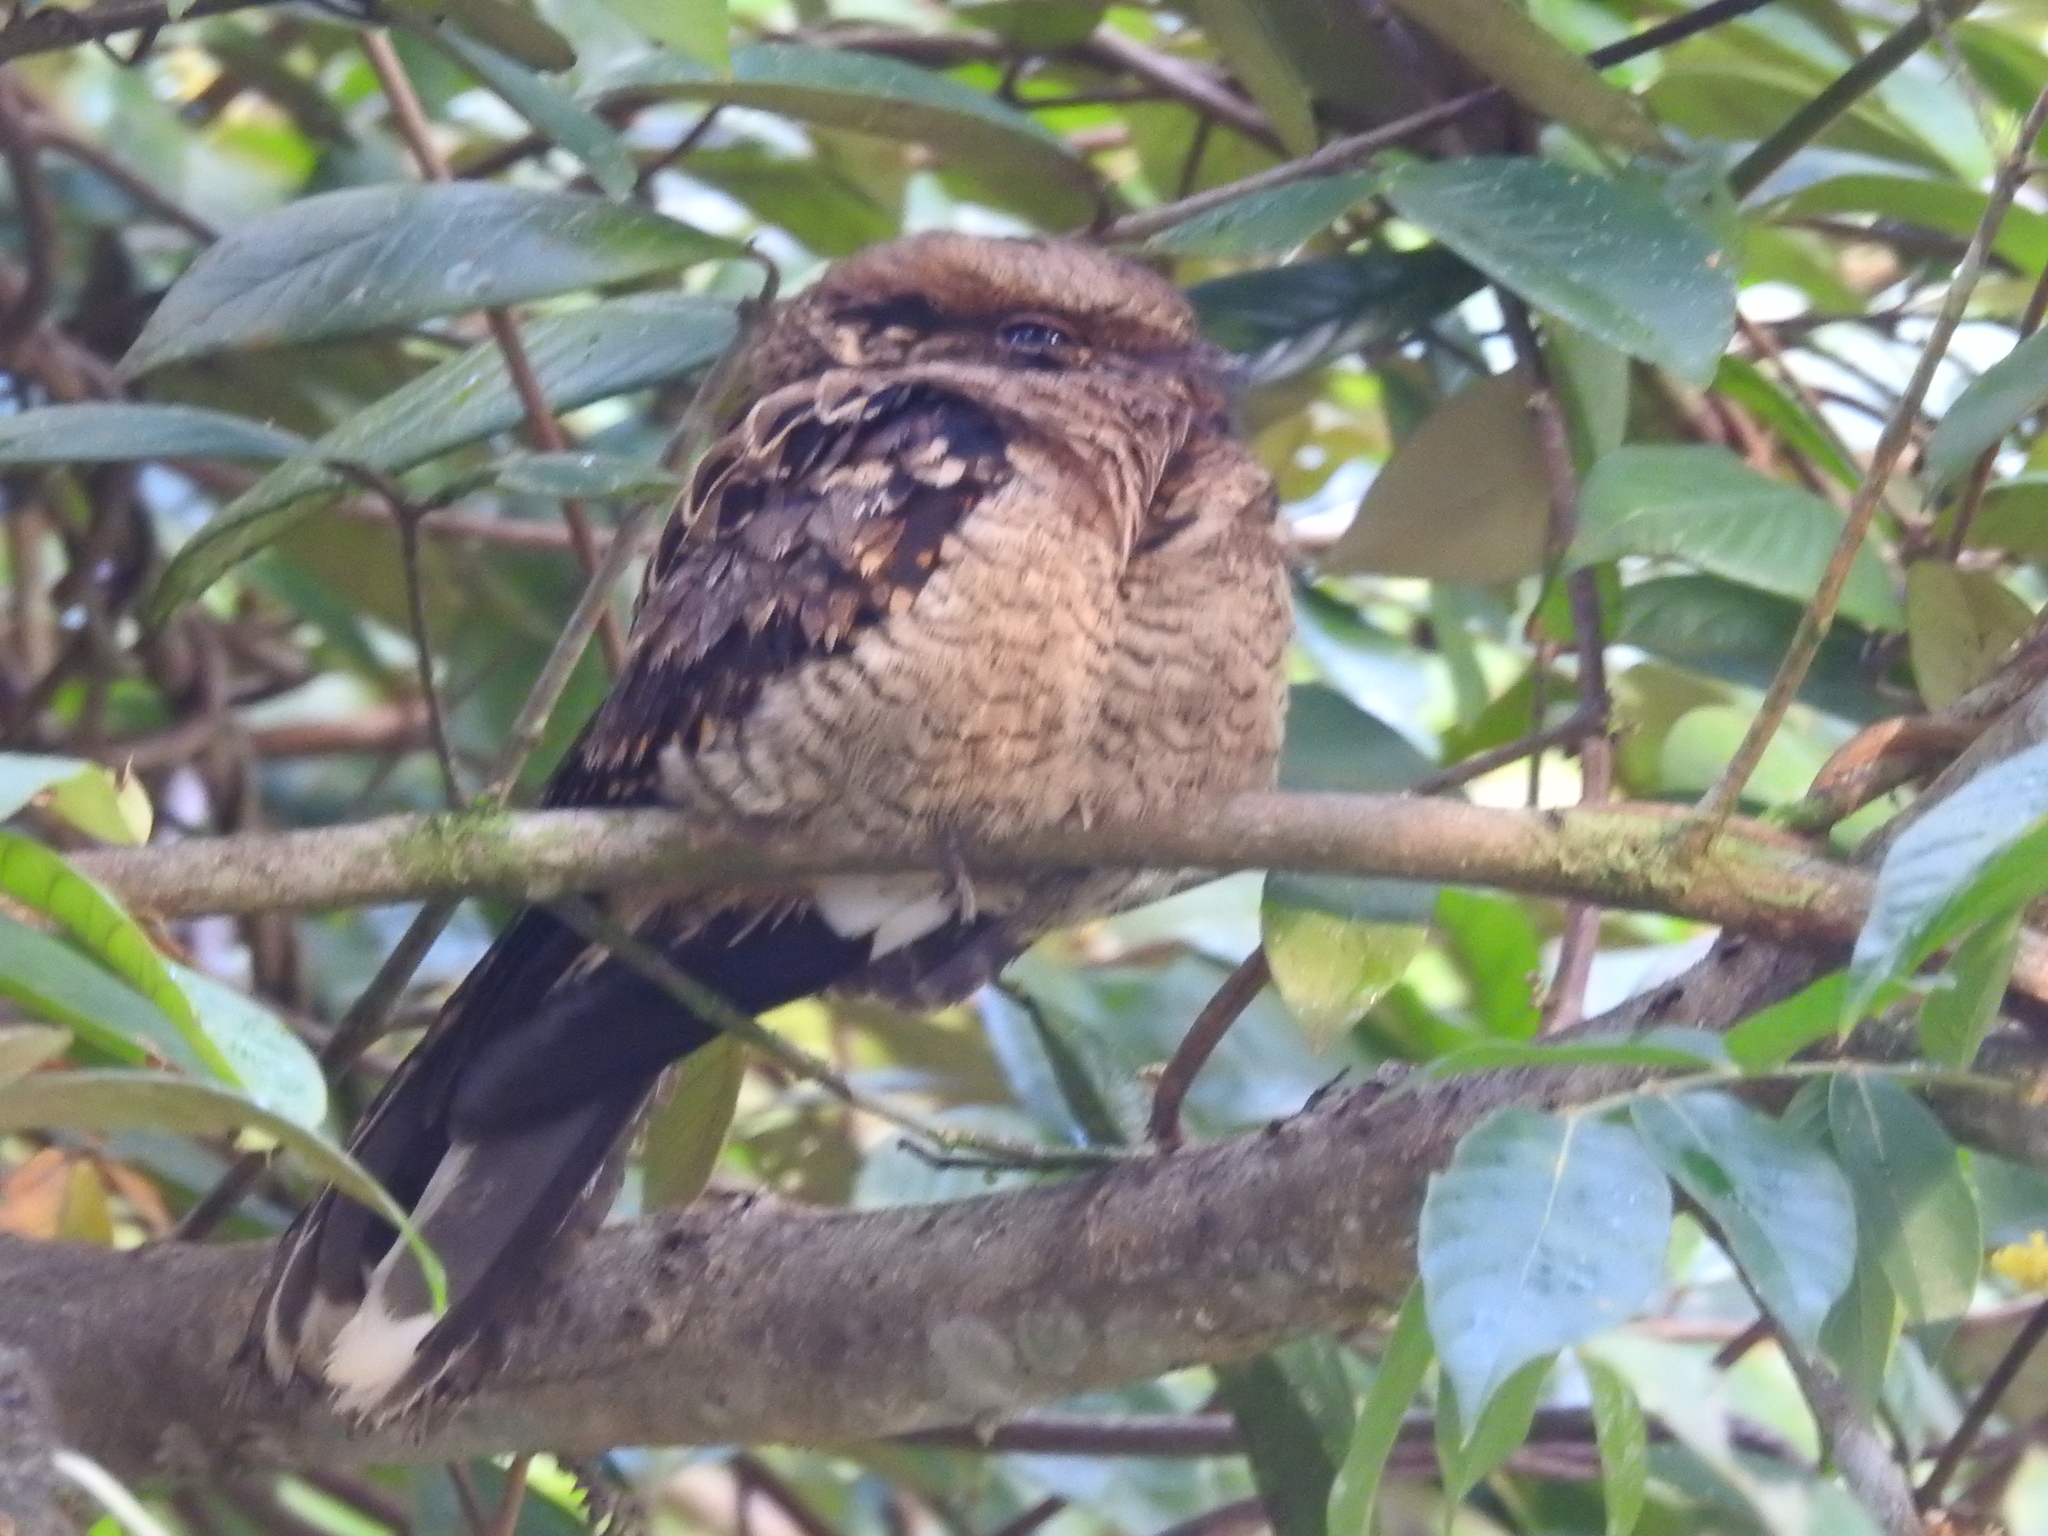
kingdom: Animalia
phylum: Chordata
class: Aves
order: Caprimulgiformes
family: Caprimulgidae
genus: Nyctidromus
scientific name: Nyctidromus albicollis
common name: Pauraque
